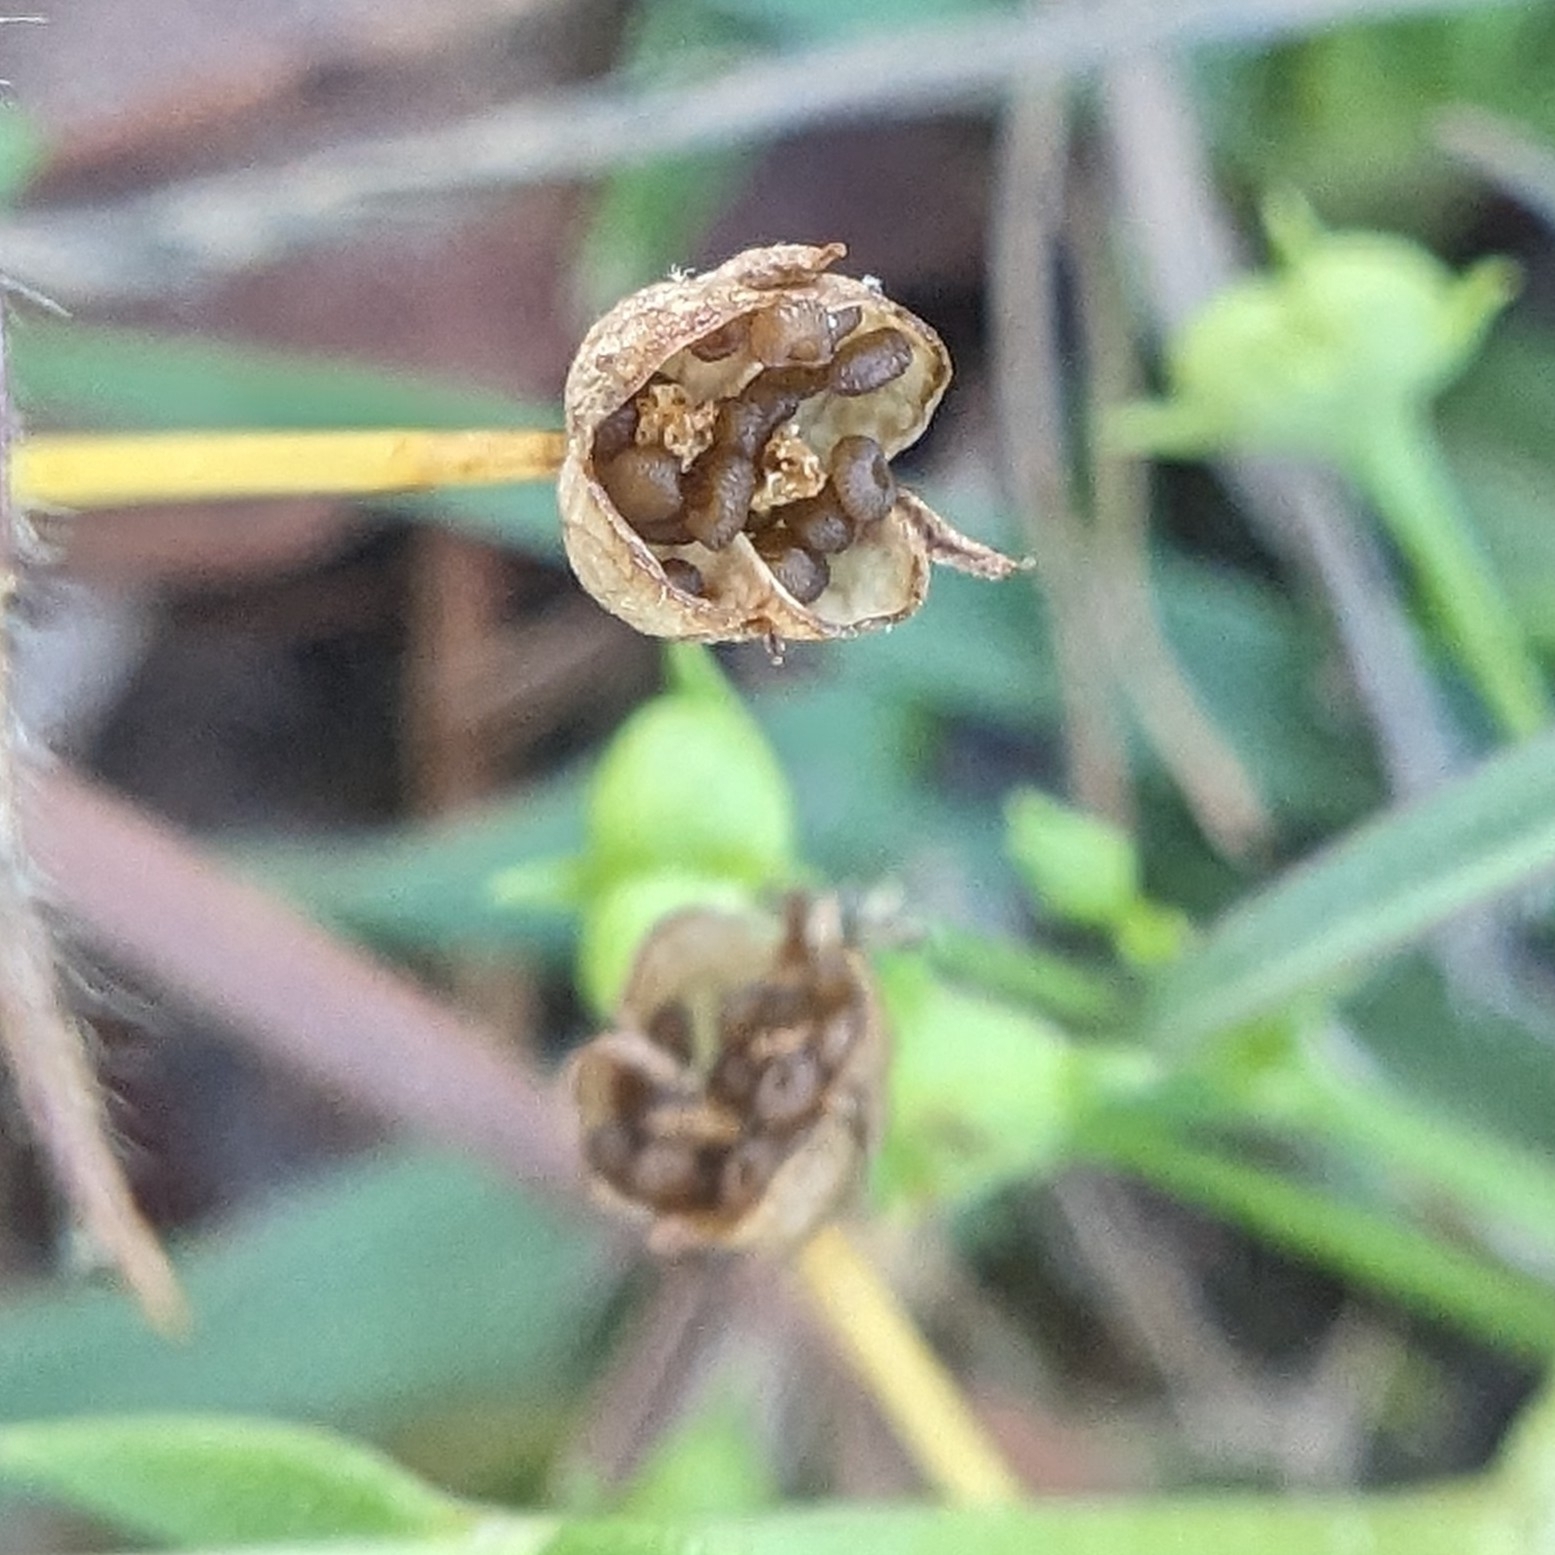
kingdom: Plantae
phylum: Tracheophyta
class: Magnoliopsida
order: Gentianales
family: Rubiaceae
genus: Houstonia
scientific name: Houstonia pusilla
